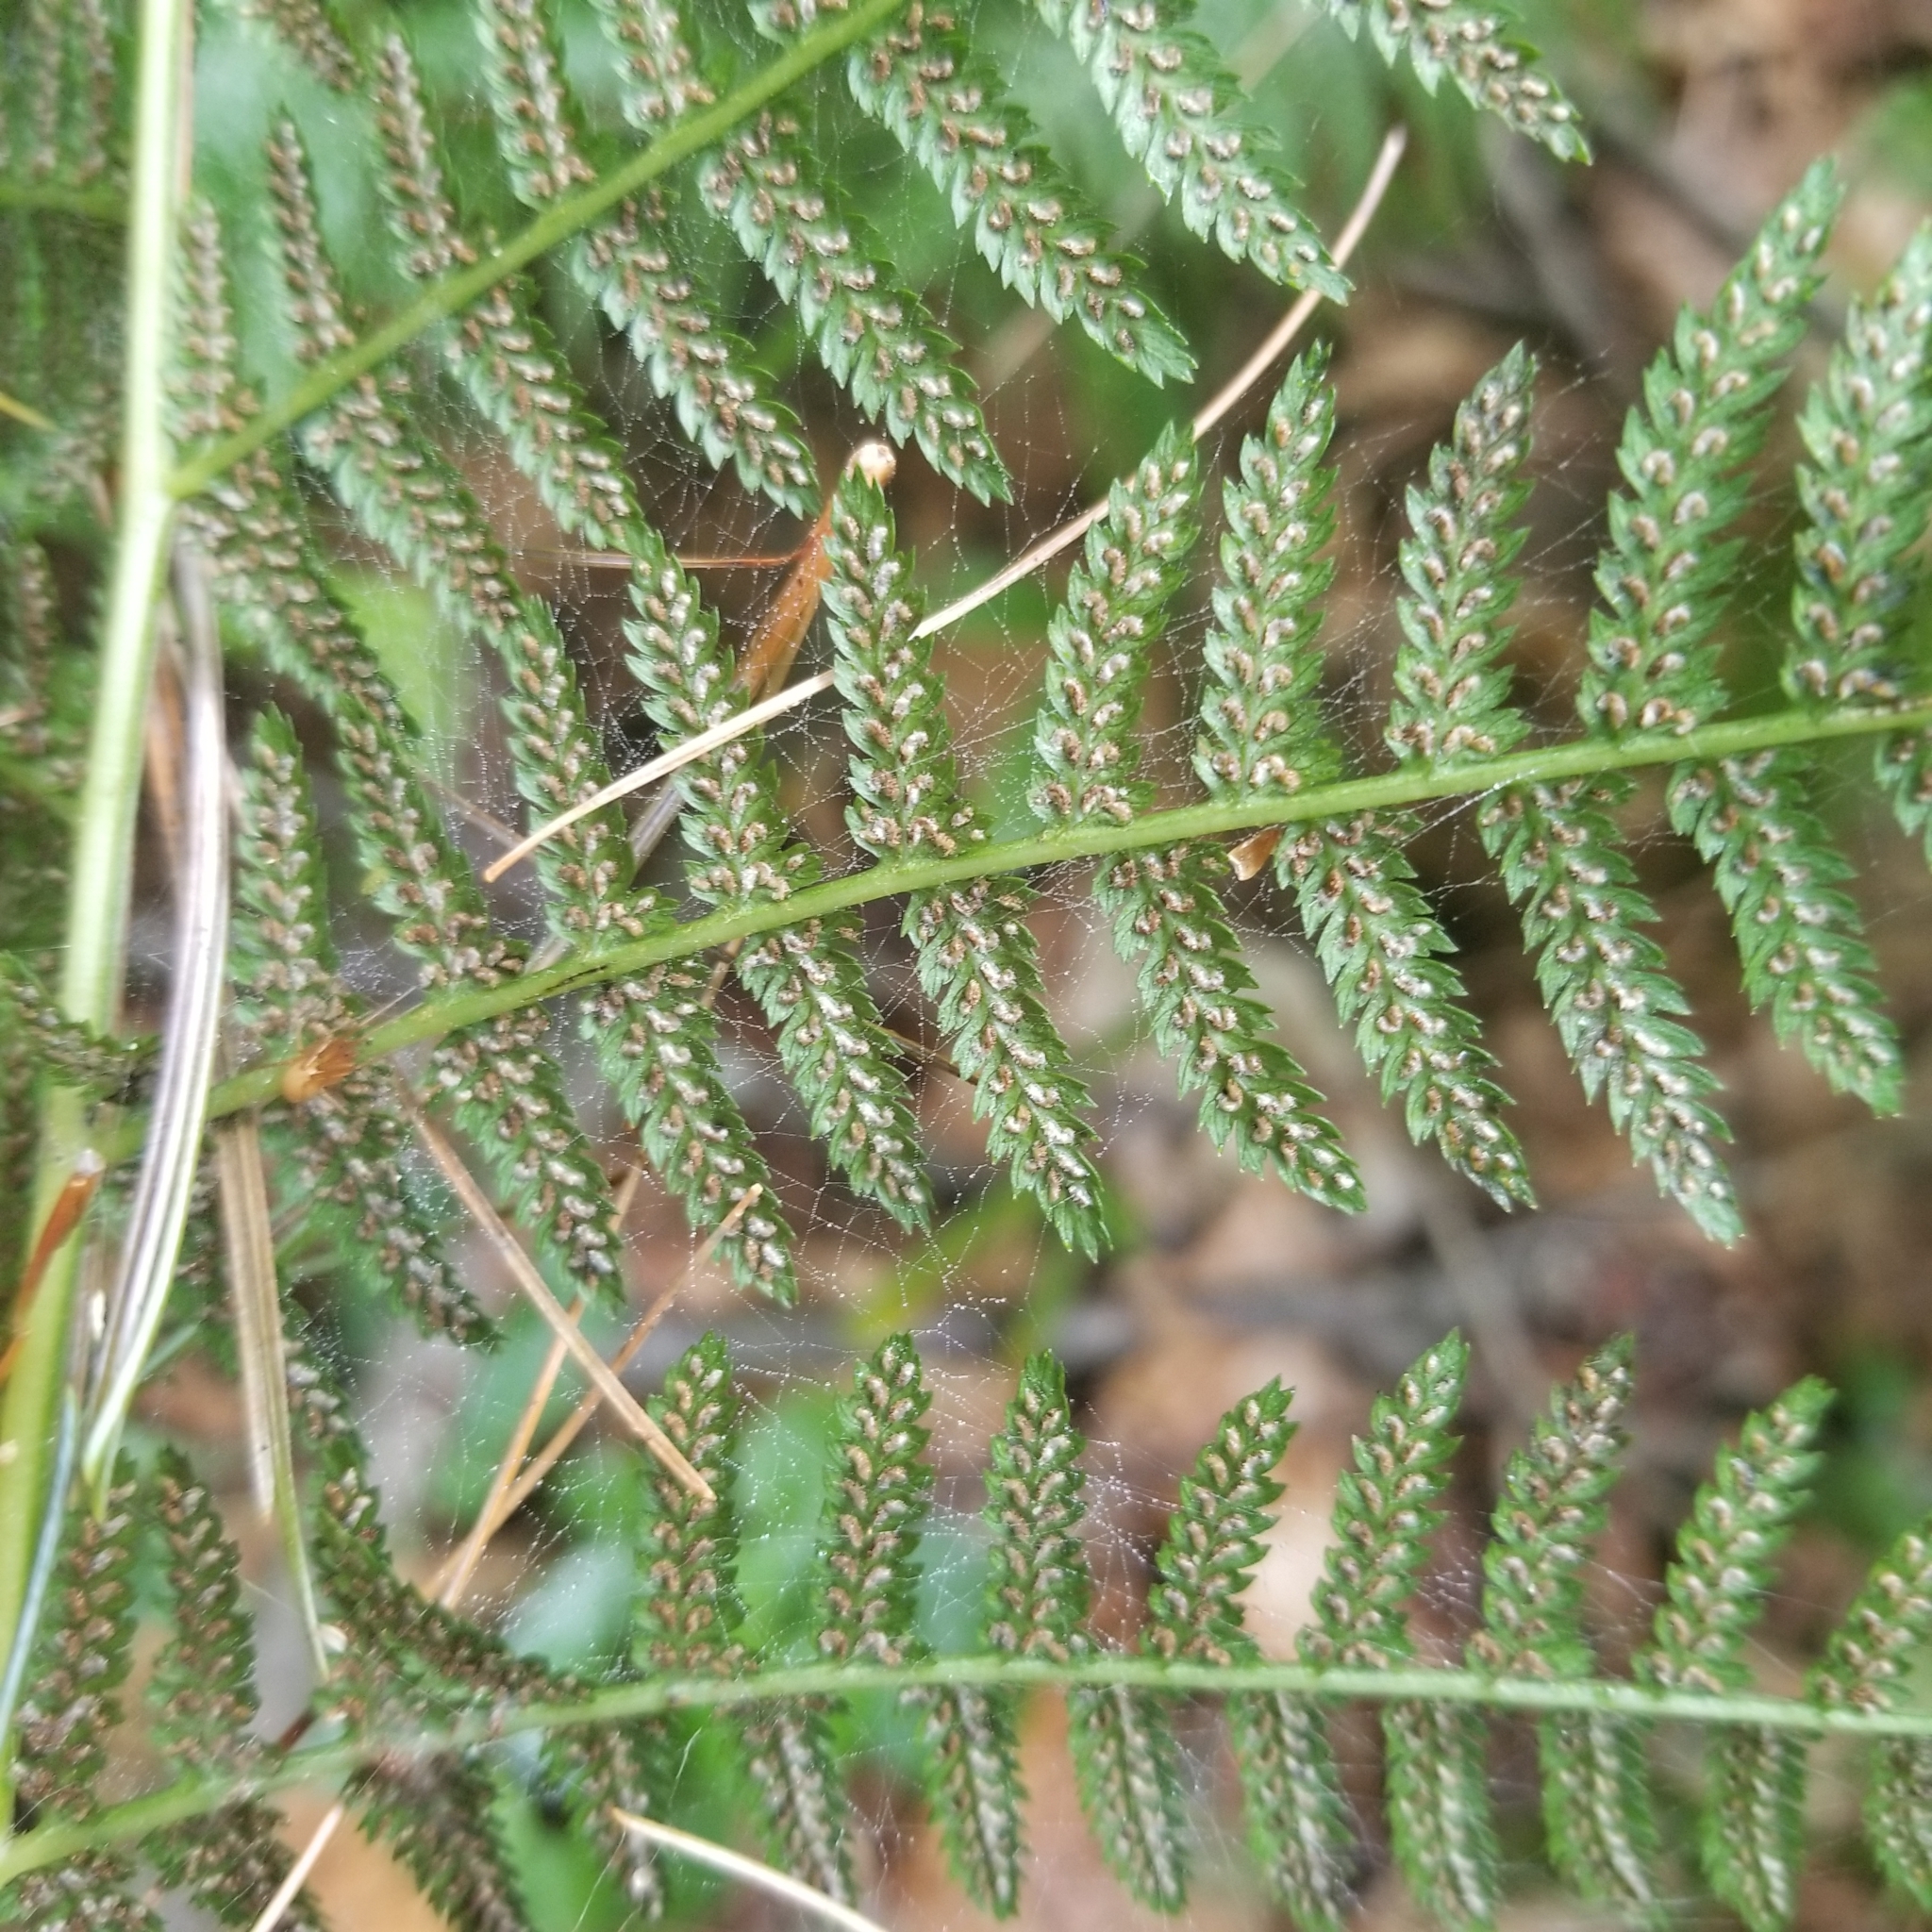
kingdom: Plantae
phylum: Tracheophyta
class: Polypodiopsida
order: Polypodiales
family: Athyriaceae
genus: Athyrium
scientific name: Athyrium angustum
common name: Northern lady fern
